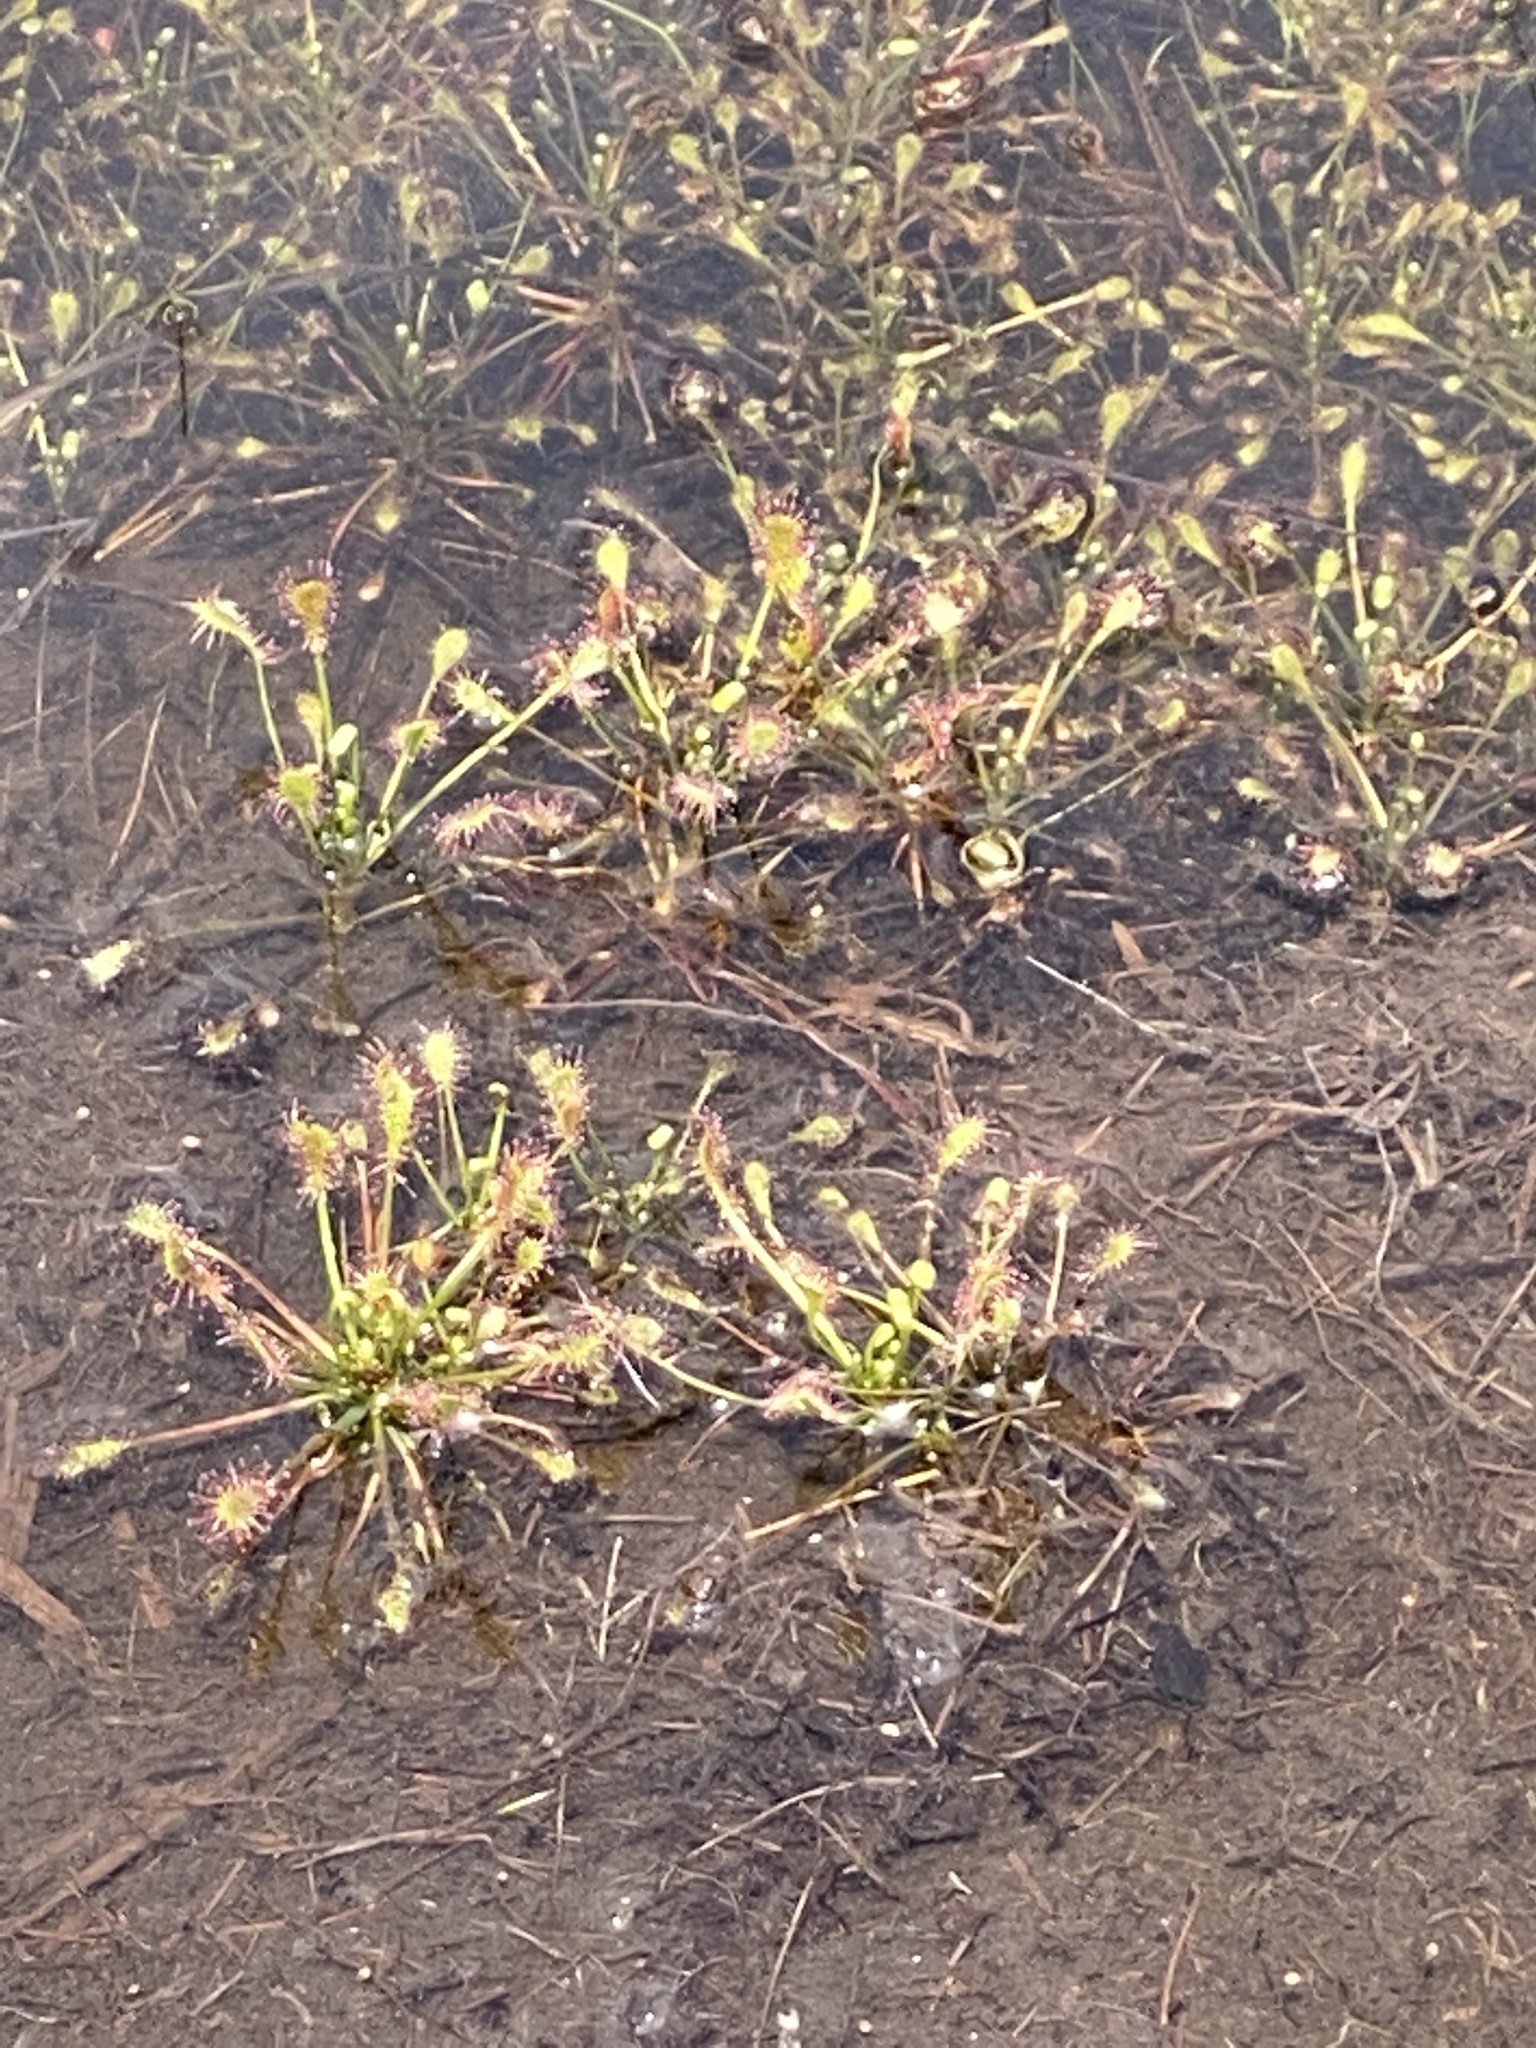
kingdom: Plantae
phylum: Tracheophyta
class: Magnoliopsida
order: Caryophyllales
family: Droseraceae
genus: Drosera
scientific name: Drosera intermedia
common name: Oblong-leaved sundew
